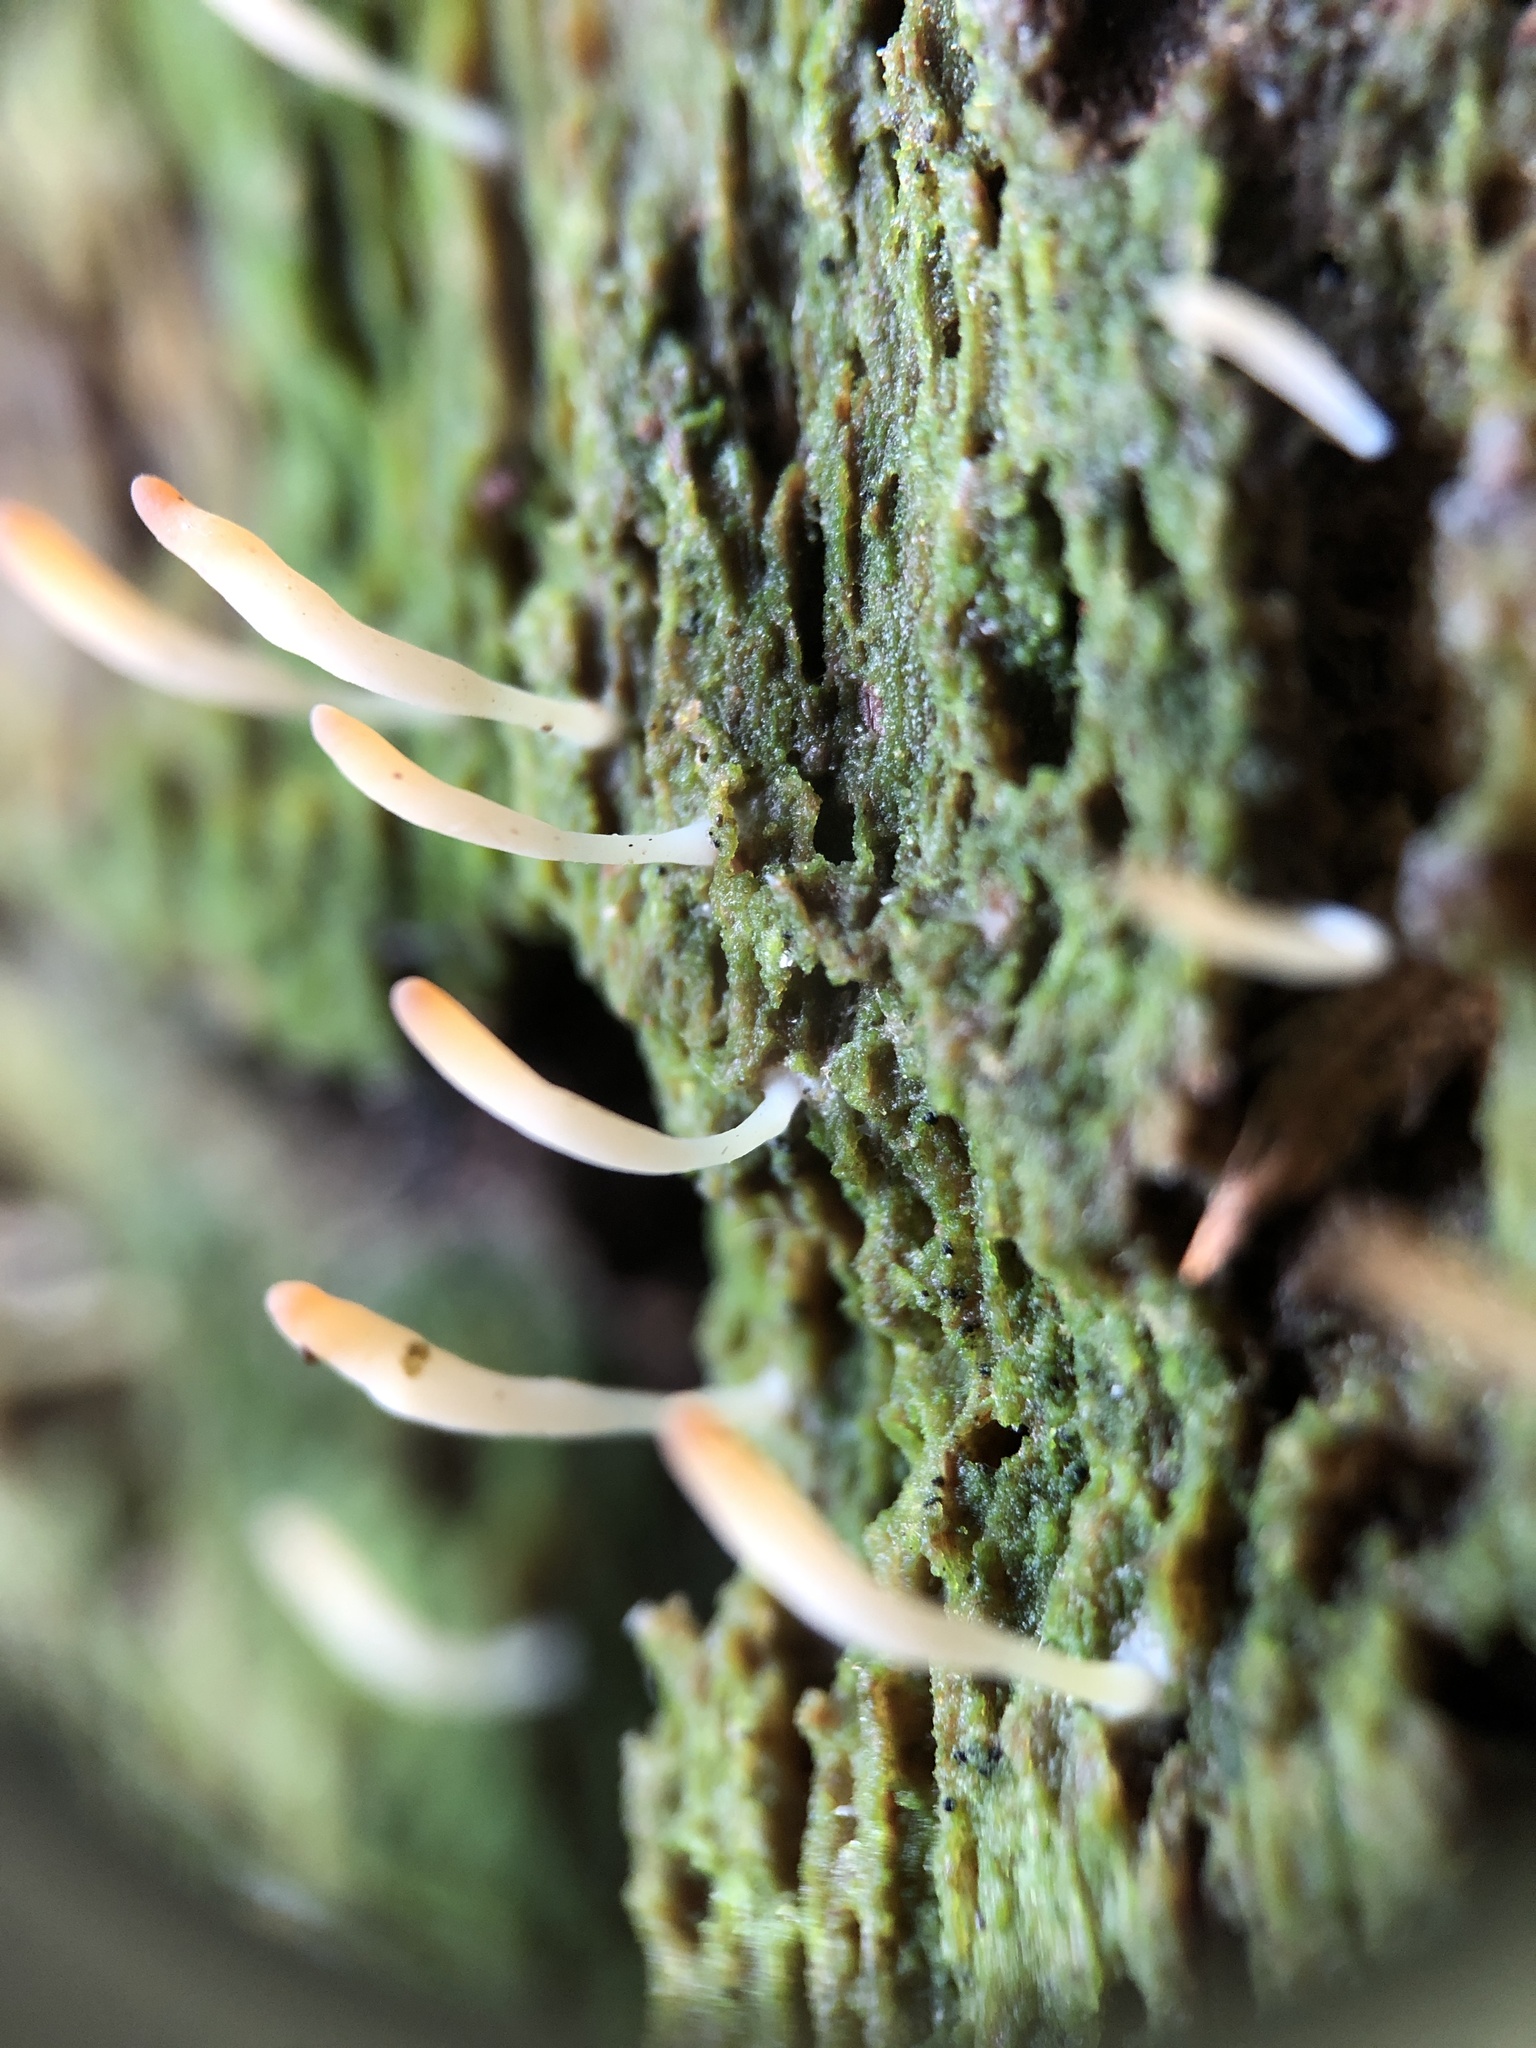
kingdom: Fungi
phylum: Basidiomycota
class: Agaricomycetes
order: Cantharellales
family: Hydnaceae
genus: Multiclavula
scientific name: Multiclavula mucida
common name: White green-algae coral
